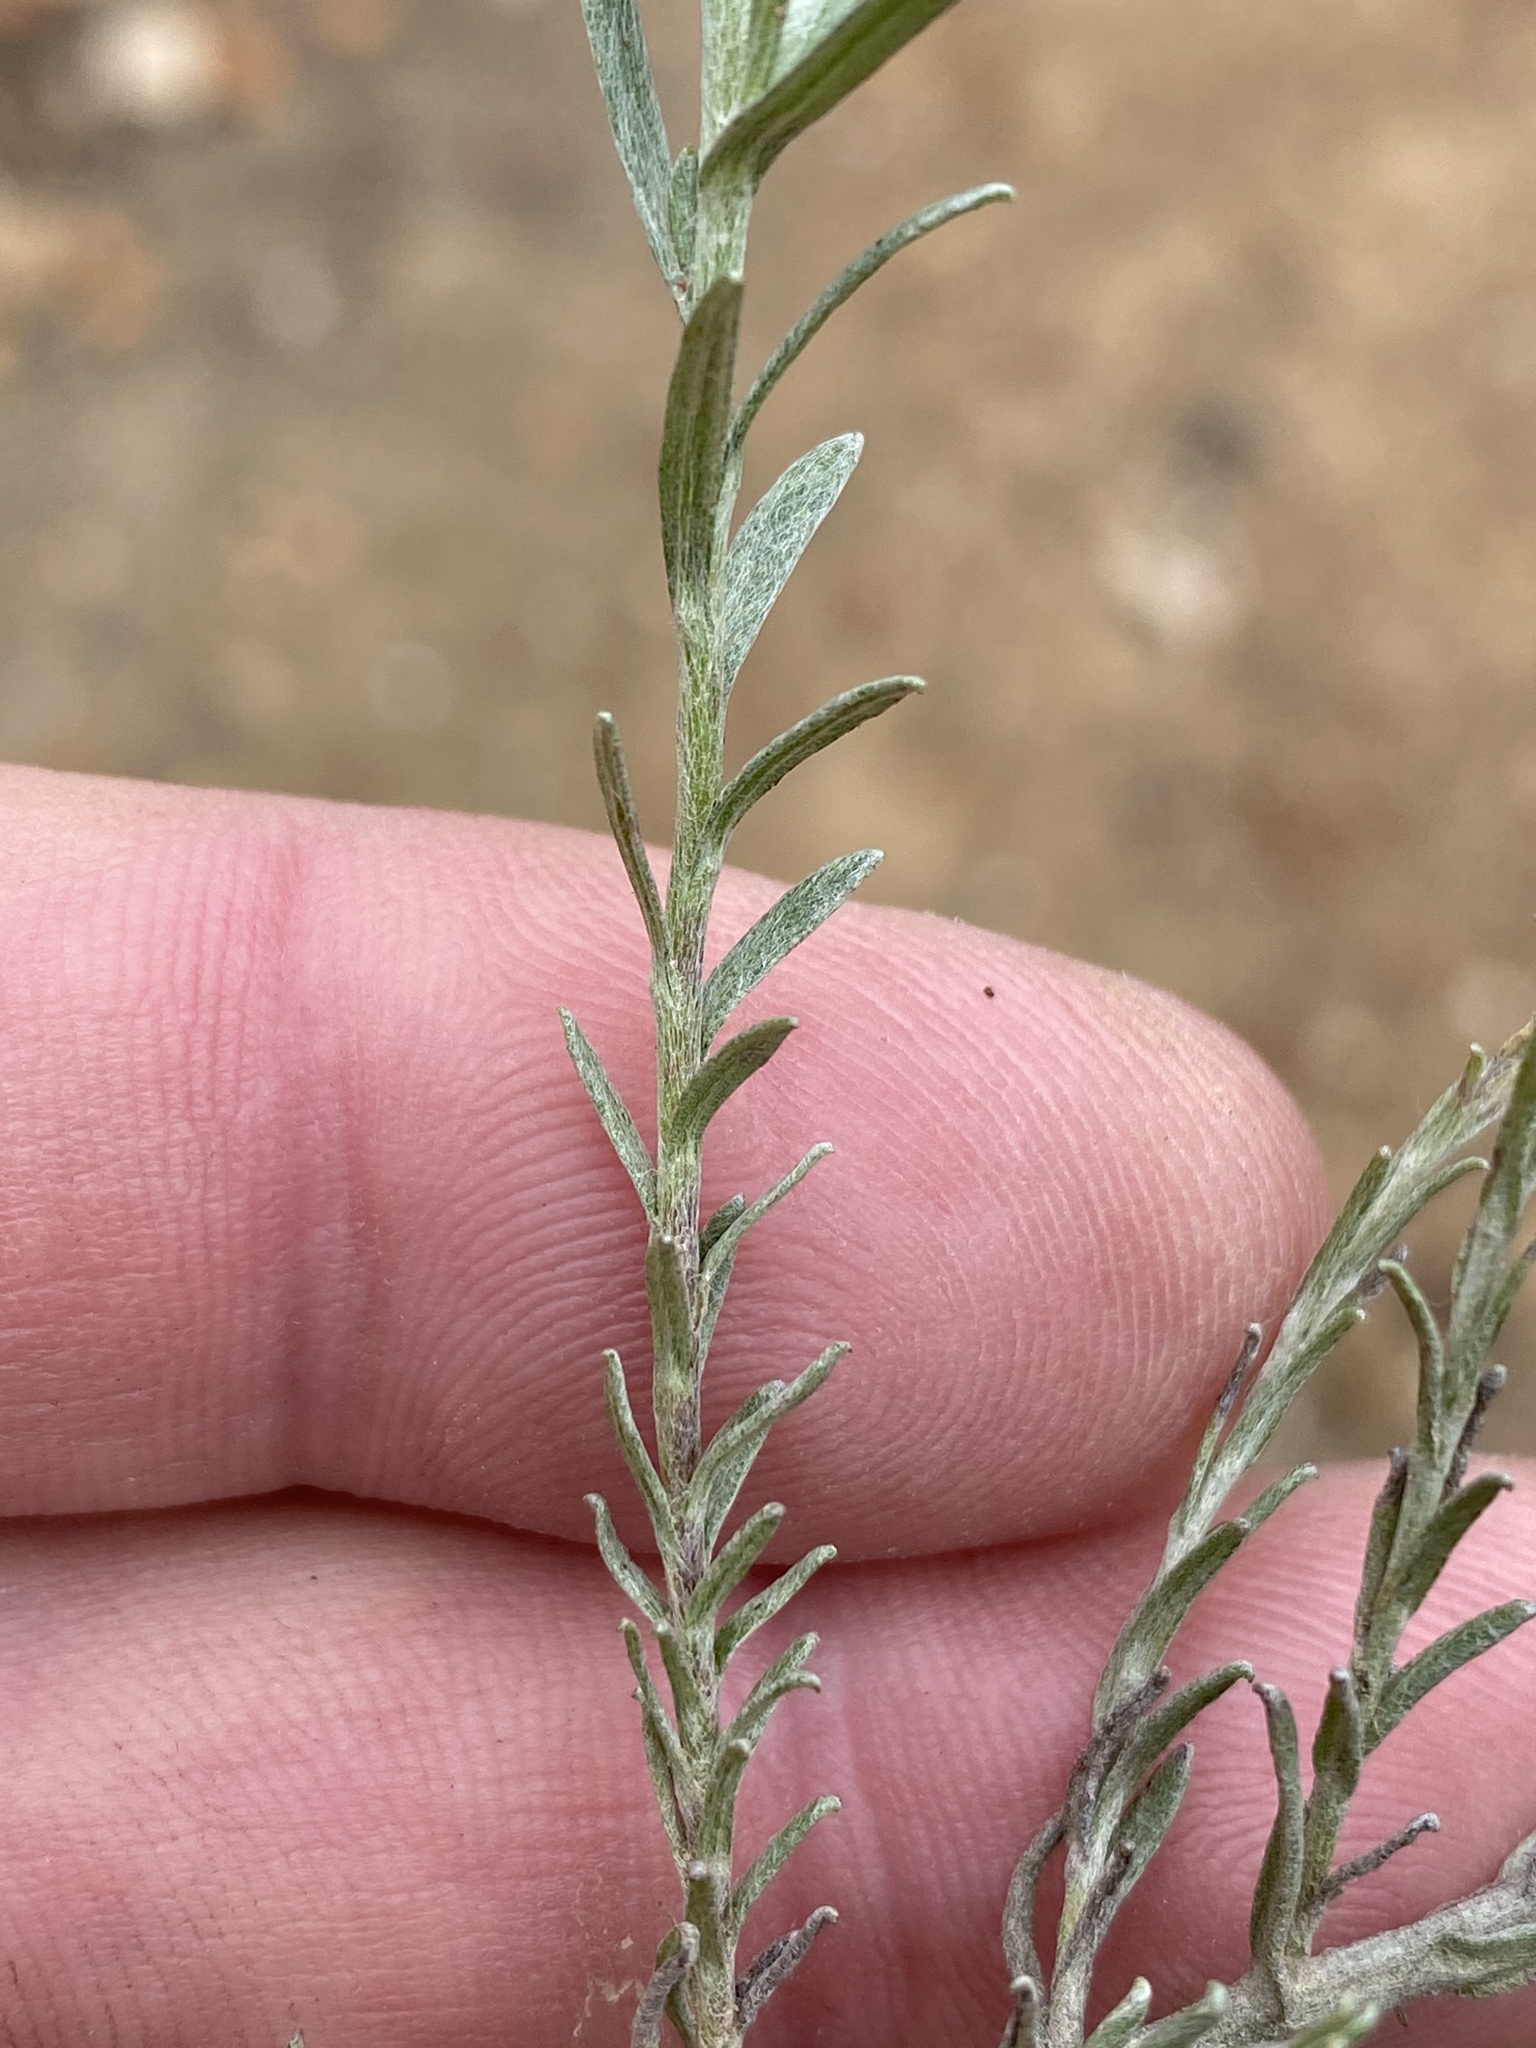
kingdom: Plantae
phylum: Tracheophyta
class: Magnoliopsida
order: Asterales
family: Asteraceae
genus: Helichrysum
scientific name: Helichrysum anomalum
